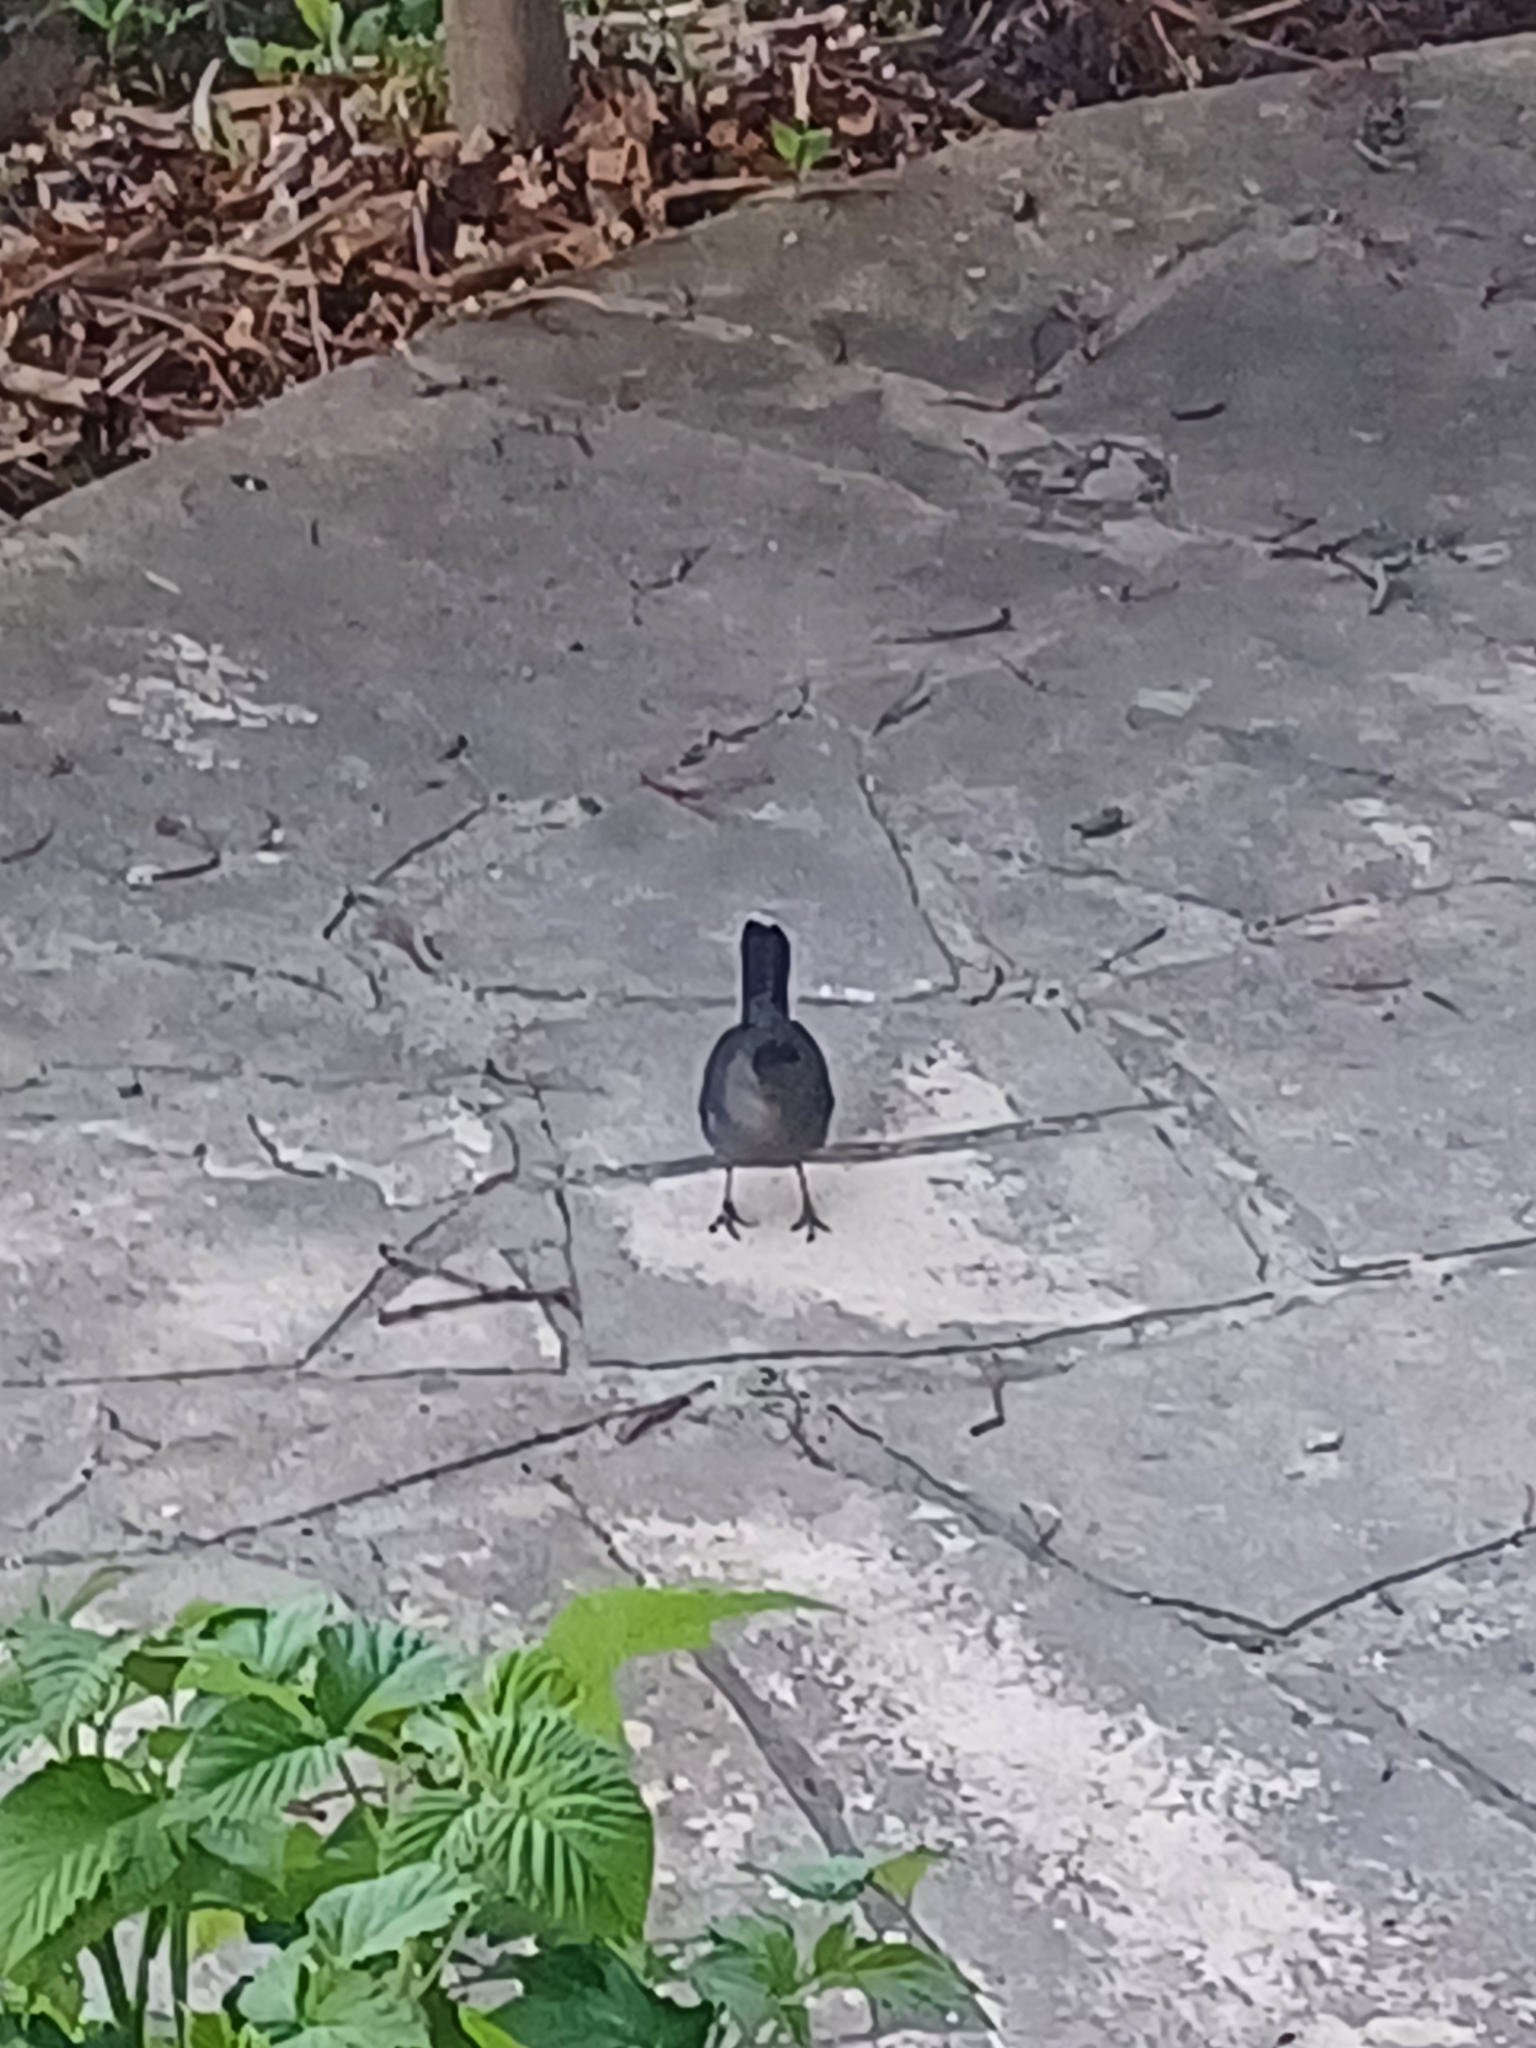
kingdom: Animalia
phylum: Chordata
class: Aves
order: Passeriformes
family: Mimidae
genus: Dumetella
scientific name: Dumetella carolinensis
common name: Gray catbird
